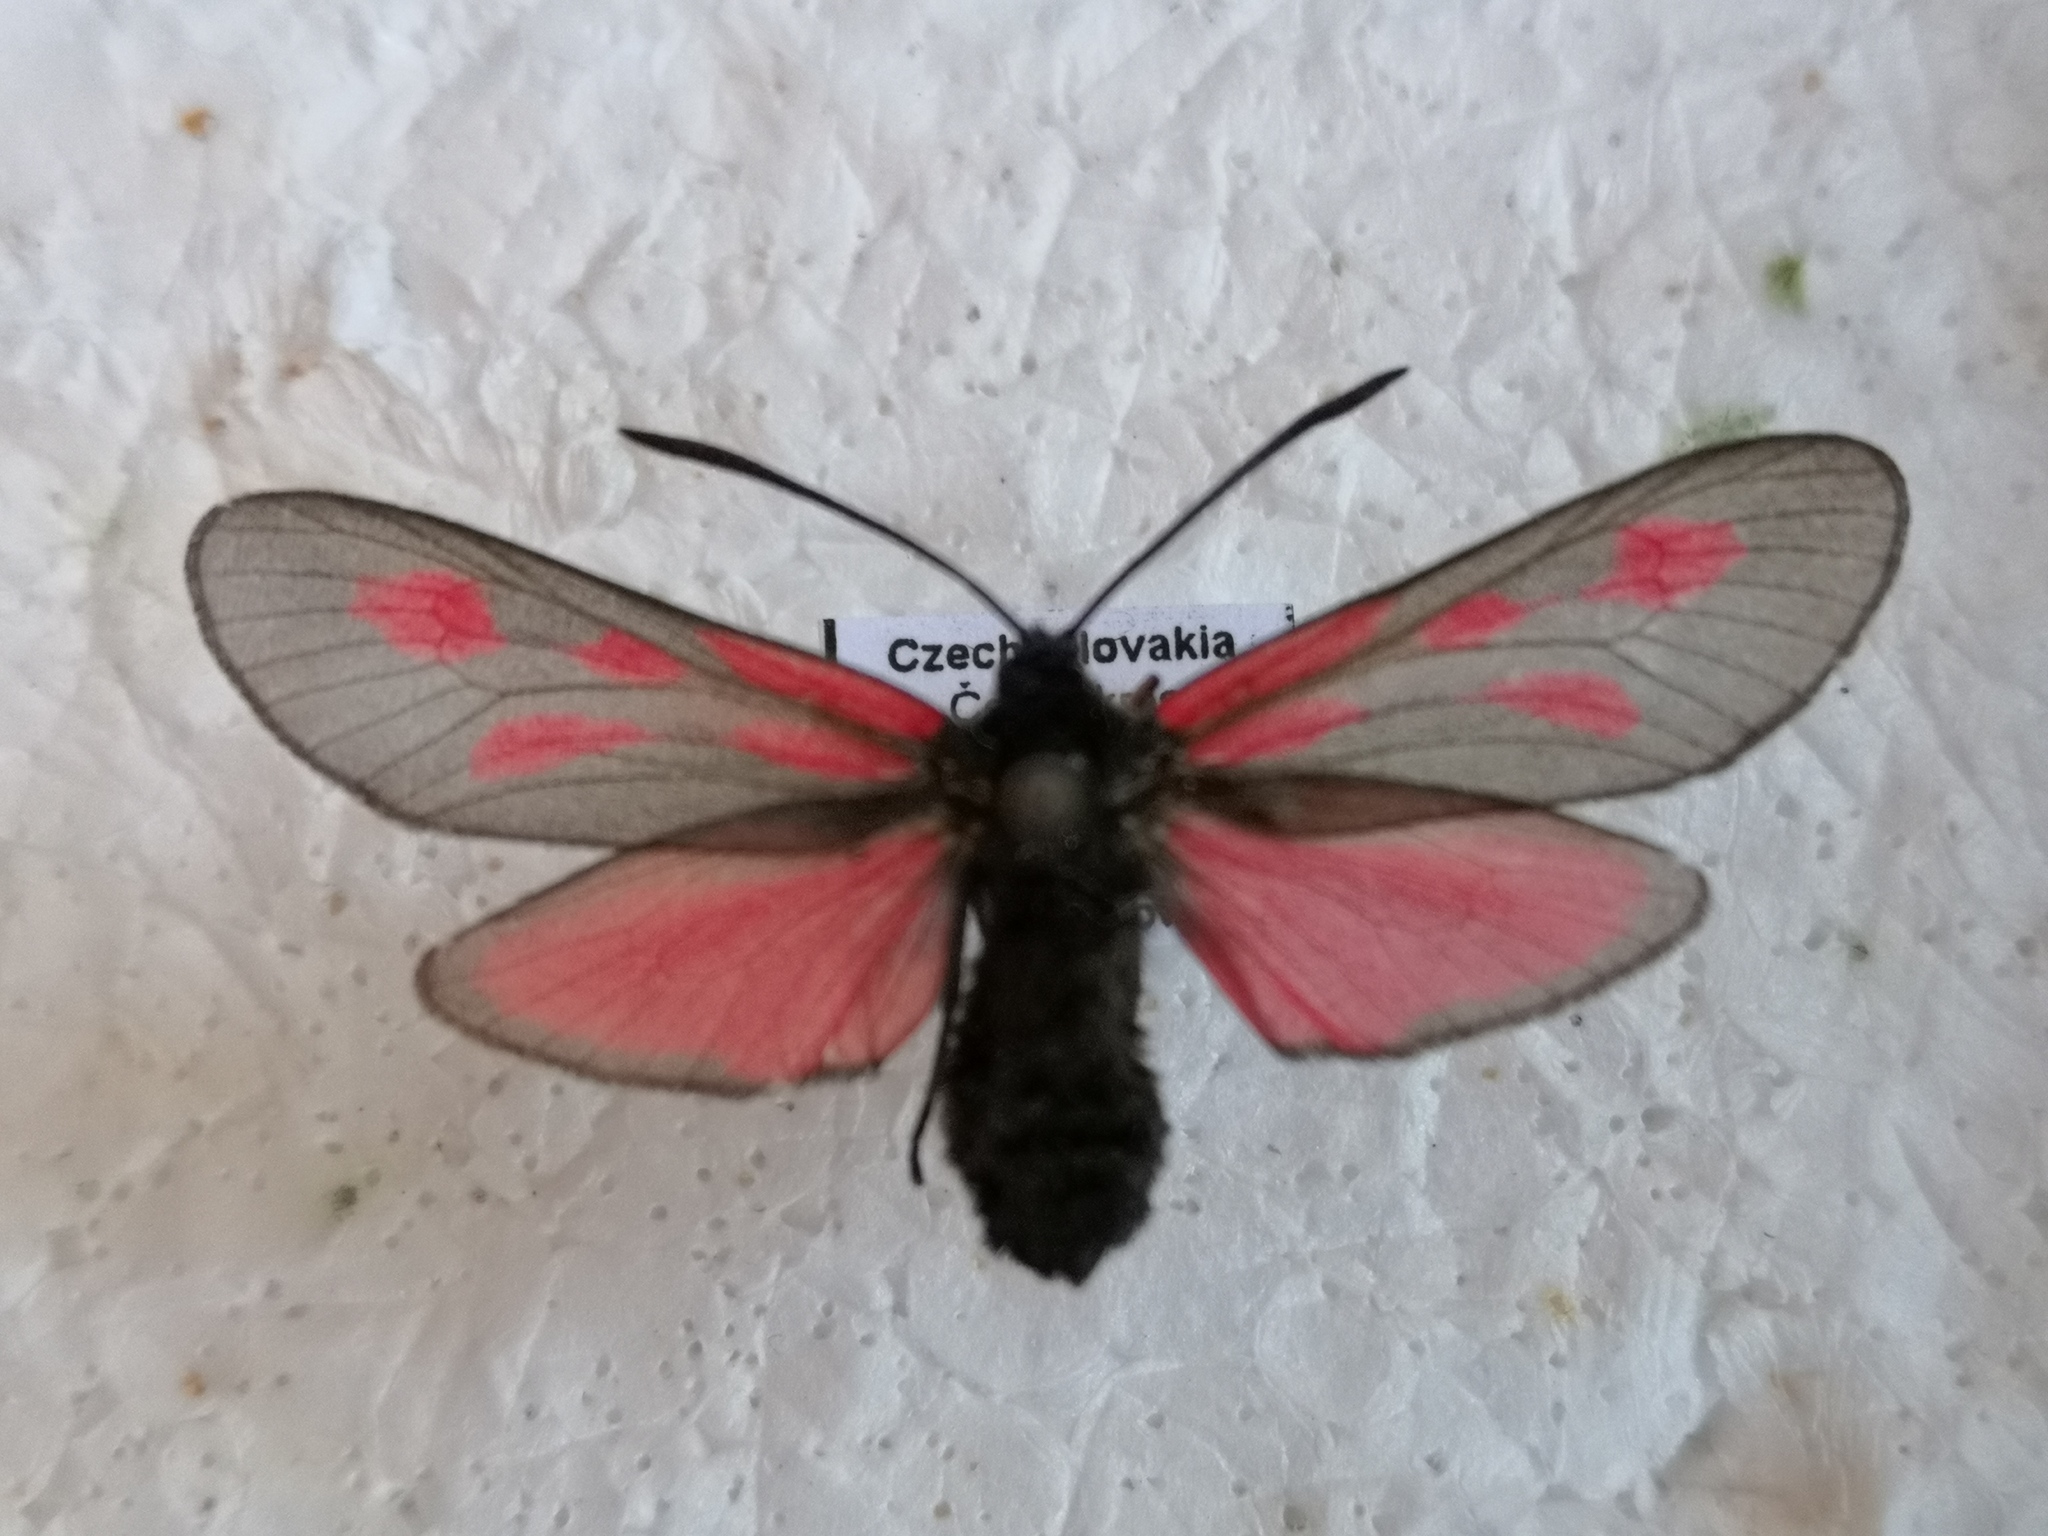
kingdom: Animalia
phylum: Arthropoda
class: Insecta
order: Lepidoptera
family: Zygaenidae
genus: Zygaena
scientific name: Zygaena osterodensis
